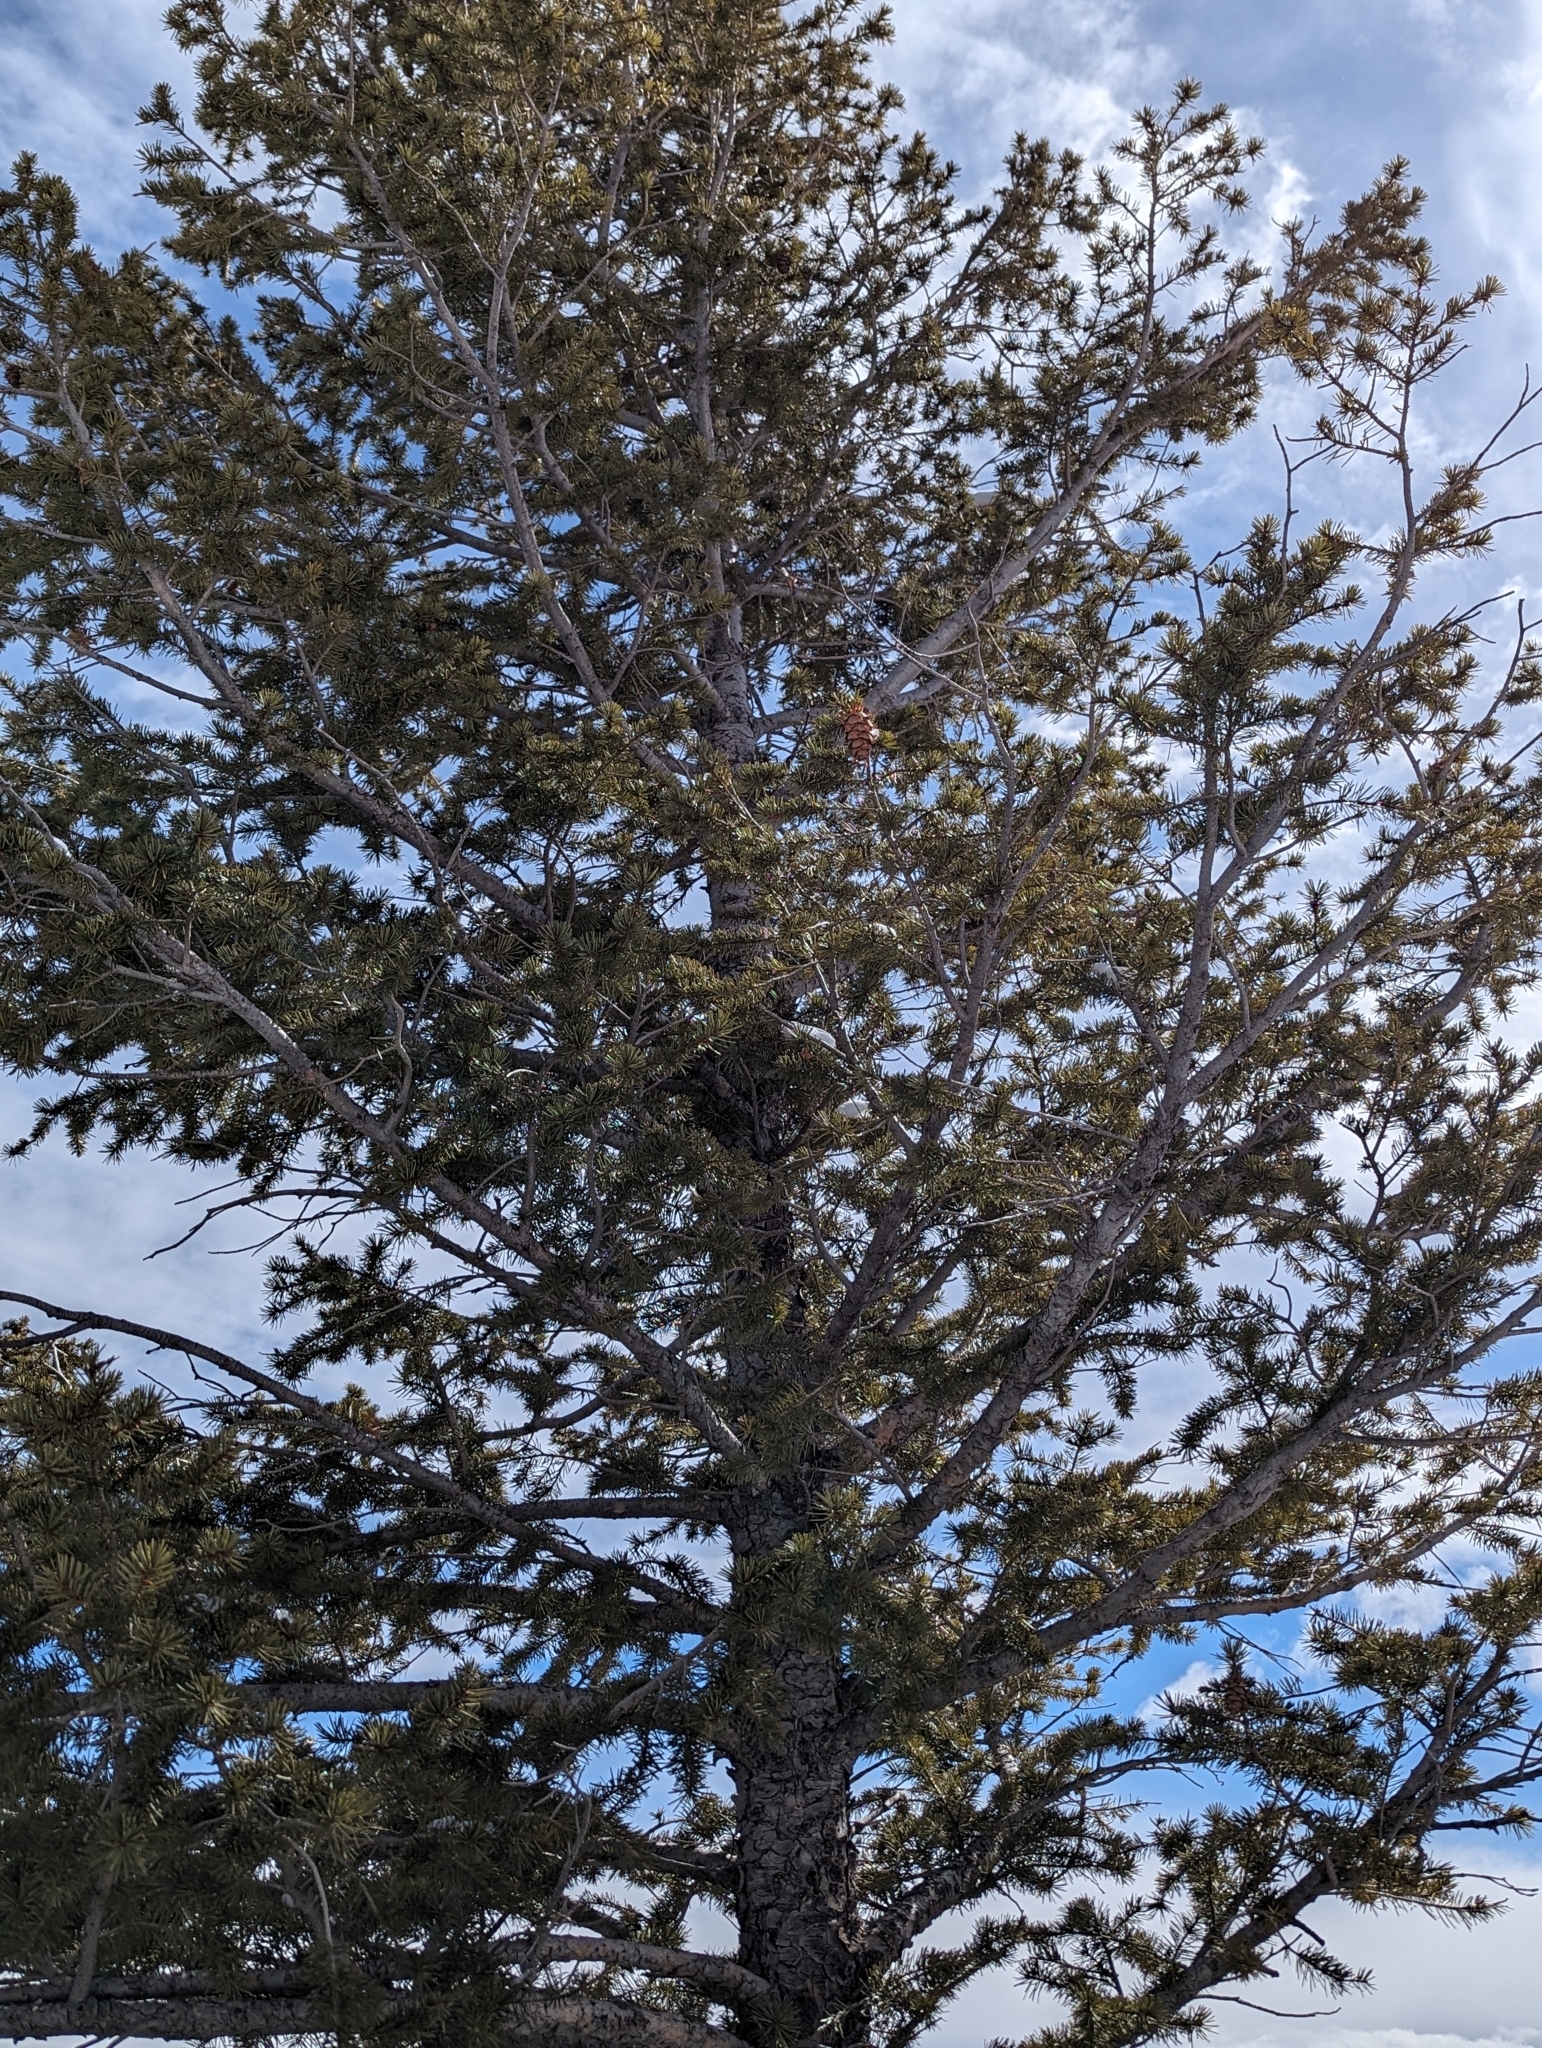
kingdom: Plantae
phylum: Tracheophyta
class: Pinopsida
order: Pinales
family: Pinaceae
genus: Pseudotsuga
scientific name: Pseudotsuga menziesii
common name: Douglas fir
